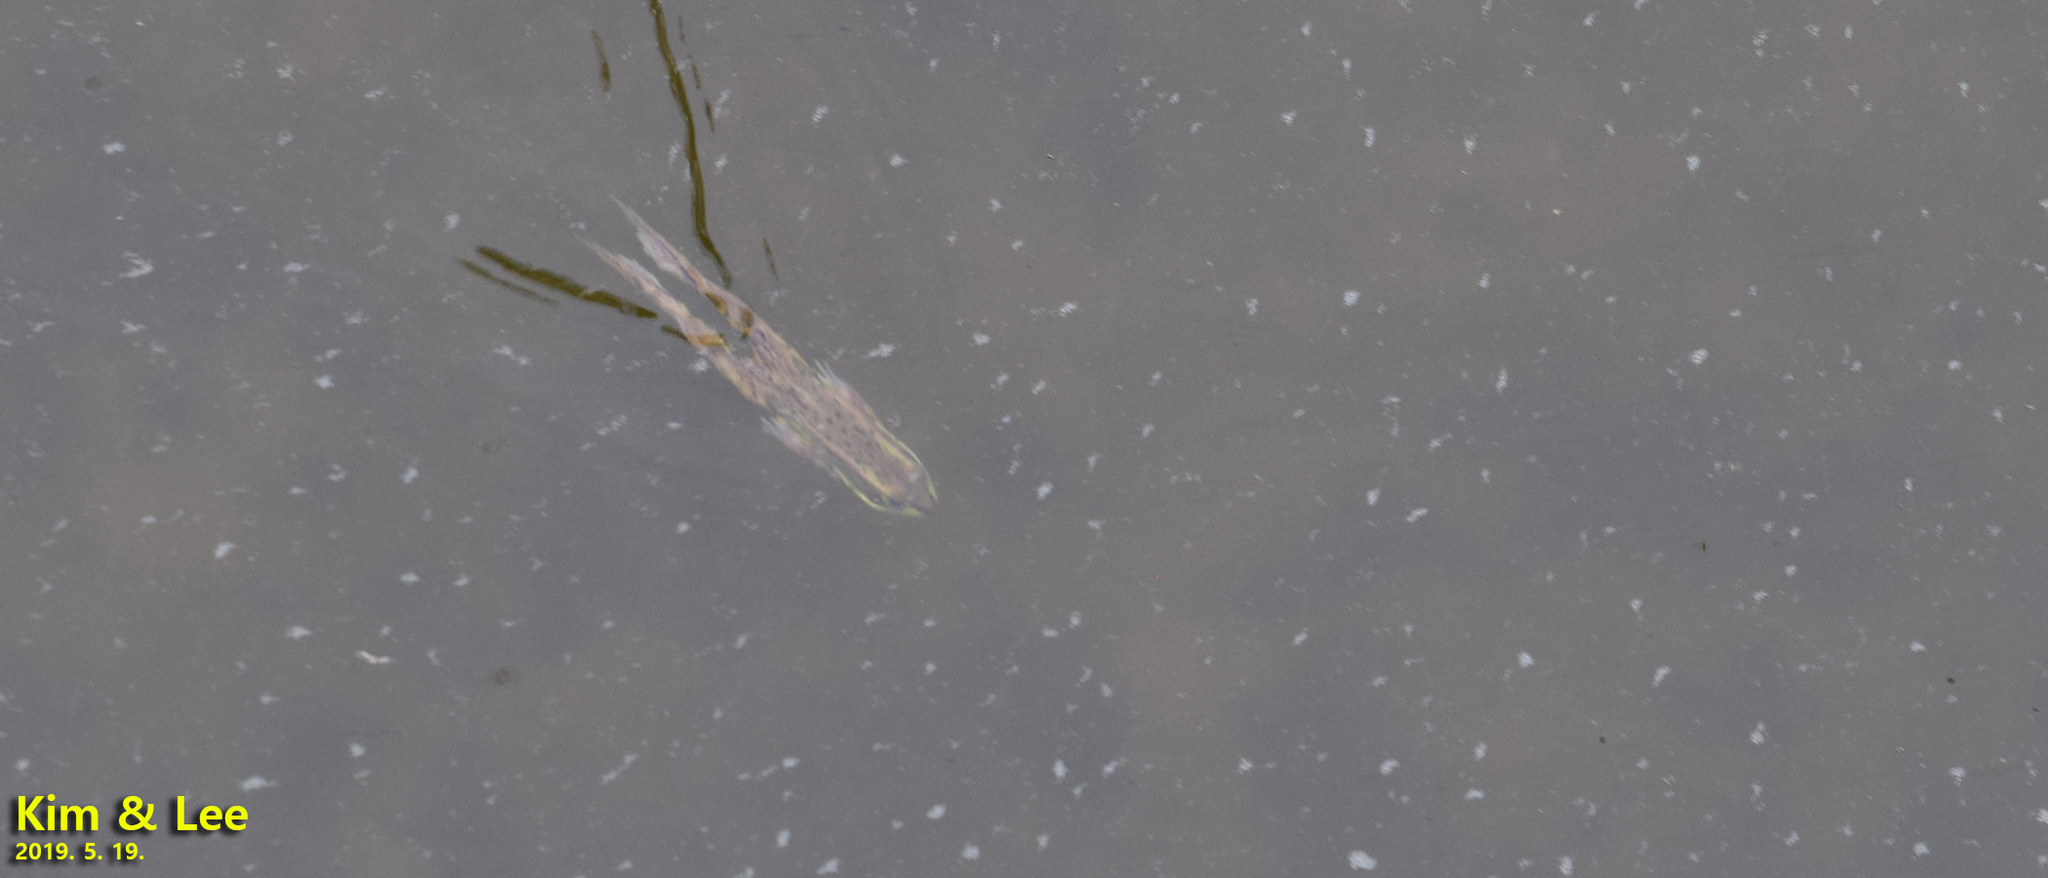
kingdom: Animalia
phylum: Chordata
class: Amphibia
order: Anura
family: Ranidae
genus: Pelophylax
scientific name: Pelophylax chosenicus
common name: Gold-spotted pond frog
